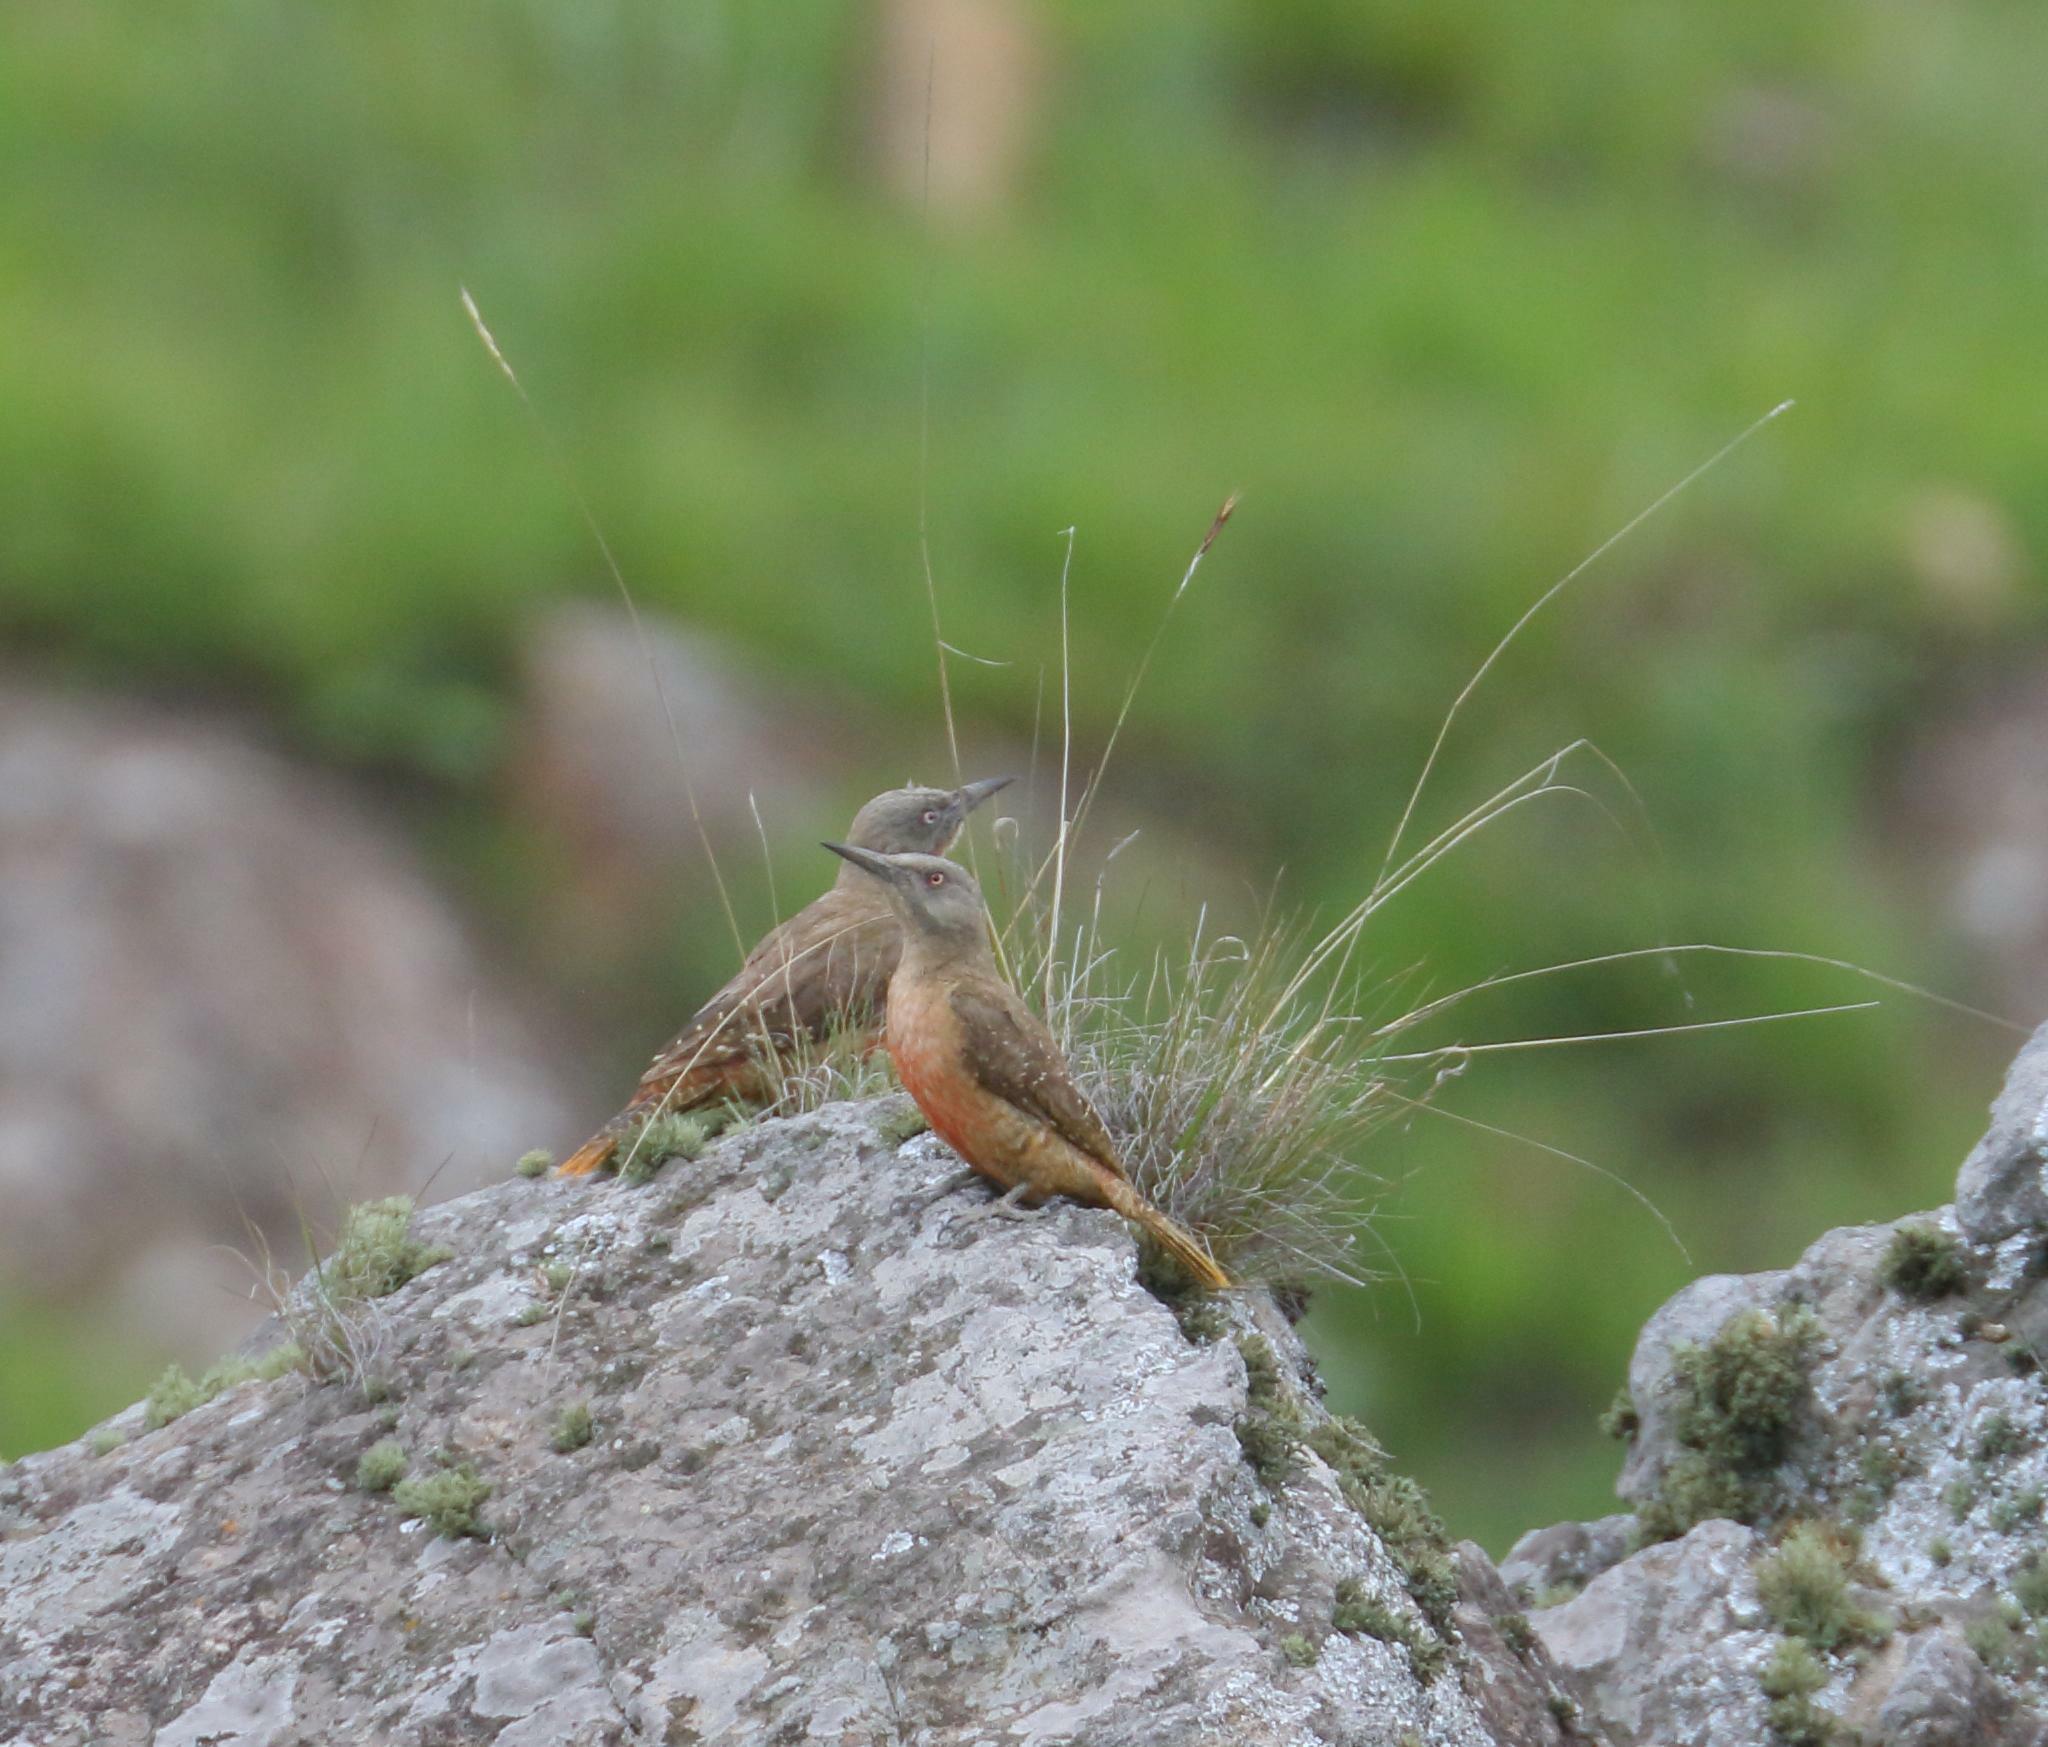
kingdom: Animalia
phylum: Chordata
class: Aves
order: Piciformes
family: Picidae
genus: Geocolaptes
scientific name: Geocolaptes olivaceus
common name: Ground woodpecker
